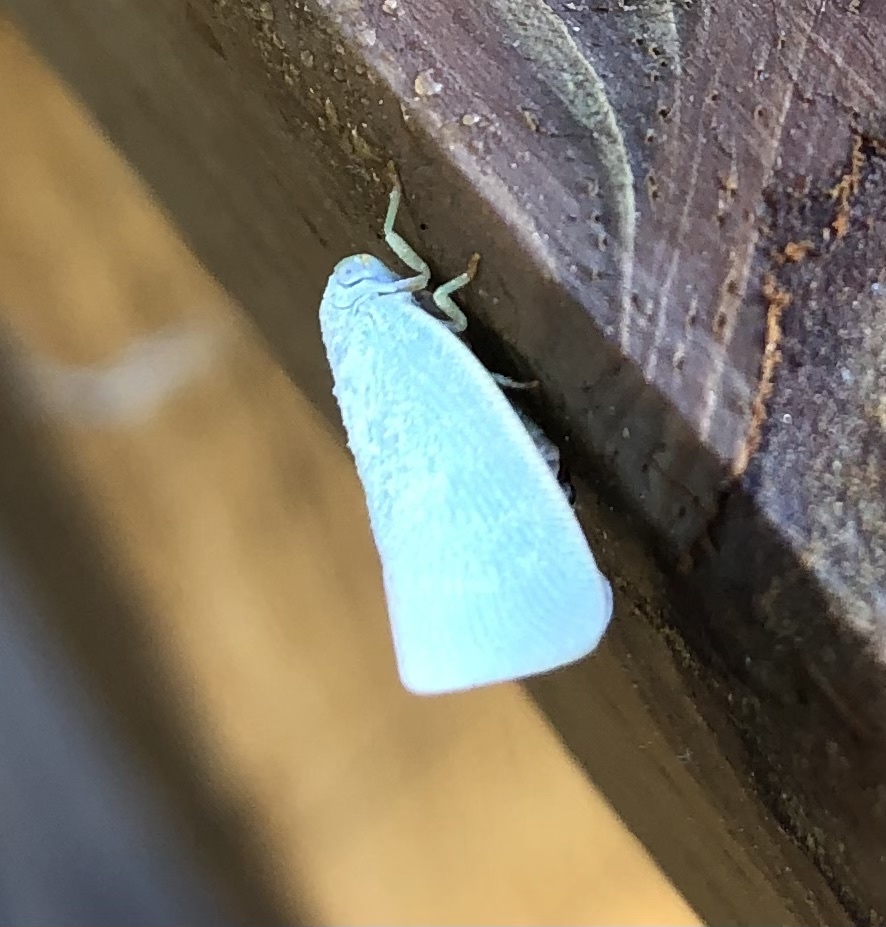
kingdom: Animalia
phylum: Arthropoda
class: Insecta
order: Hemiptera
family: Flatidae
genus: Flatormenis
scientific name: Flatormenis proxima
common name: Northern flatid planthopper
